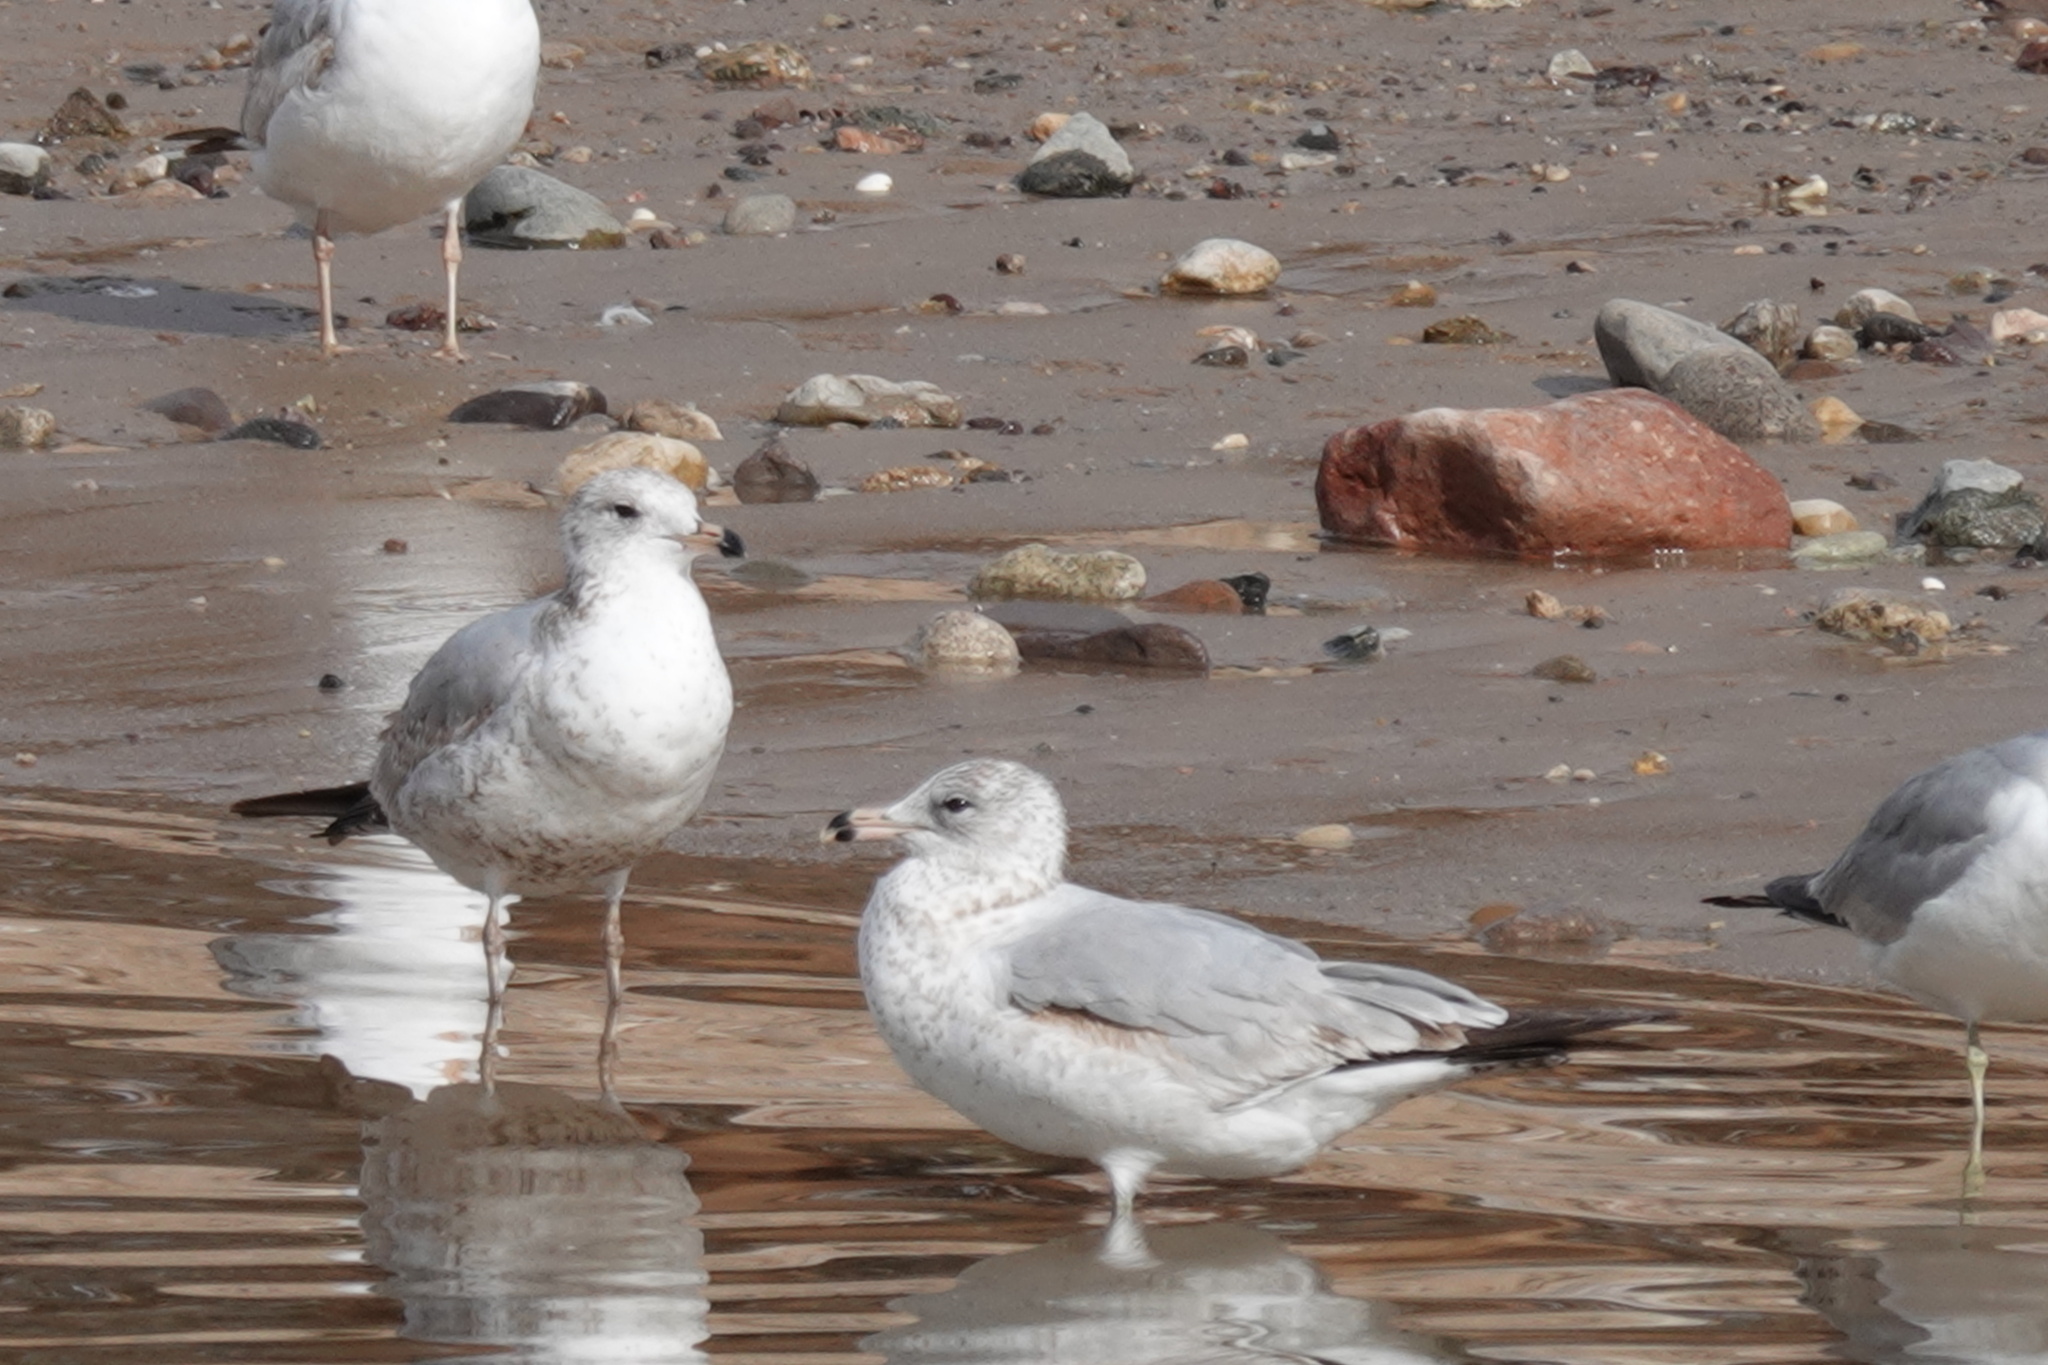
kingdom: Animalia
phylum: Chordata
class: Aves
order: Charadriiformes
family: Laridae
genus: Larus
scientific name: Larus delawarensis
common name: Ring-billed gull
